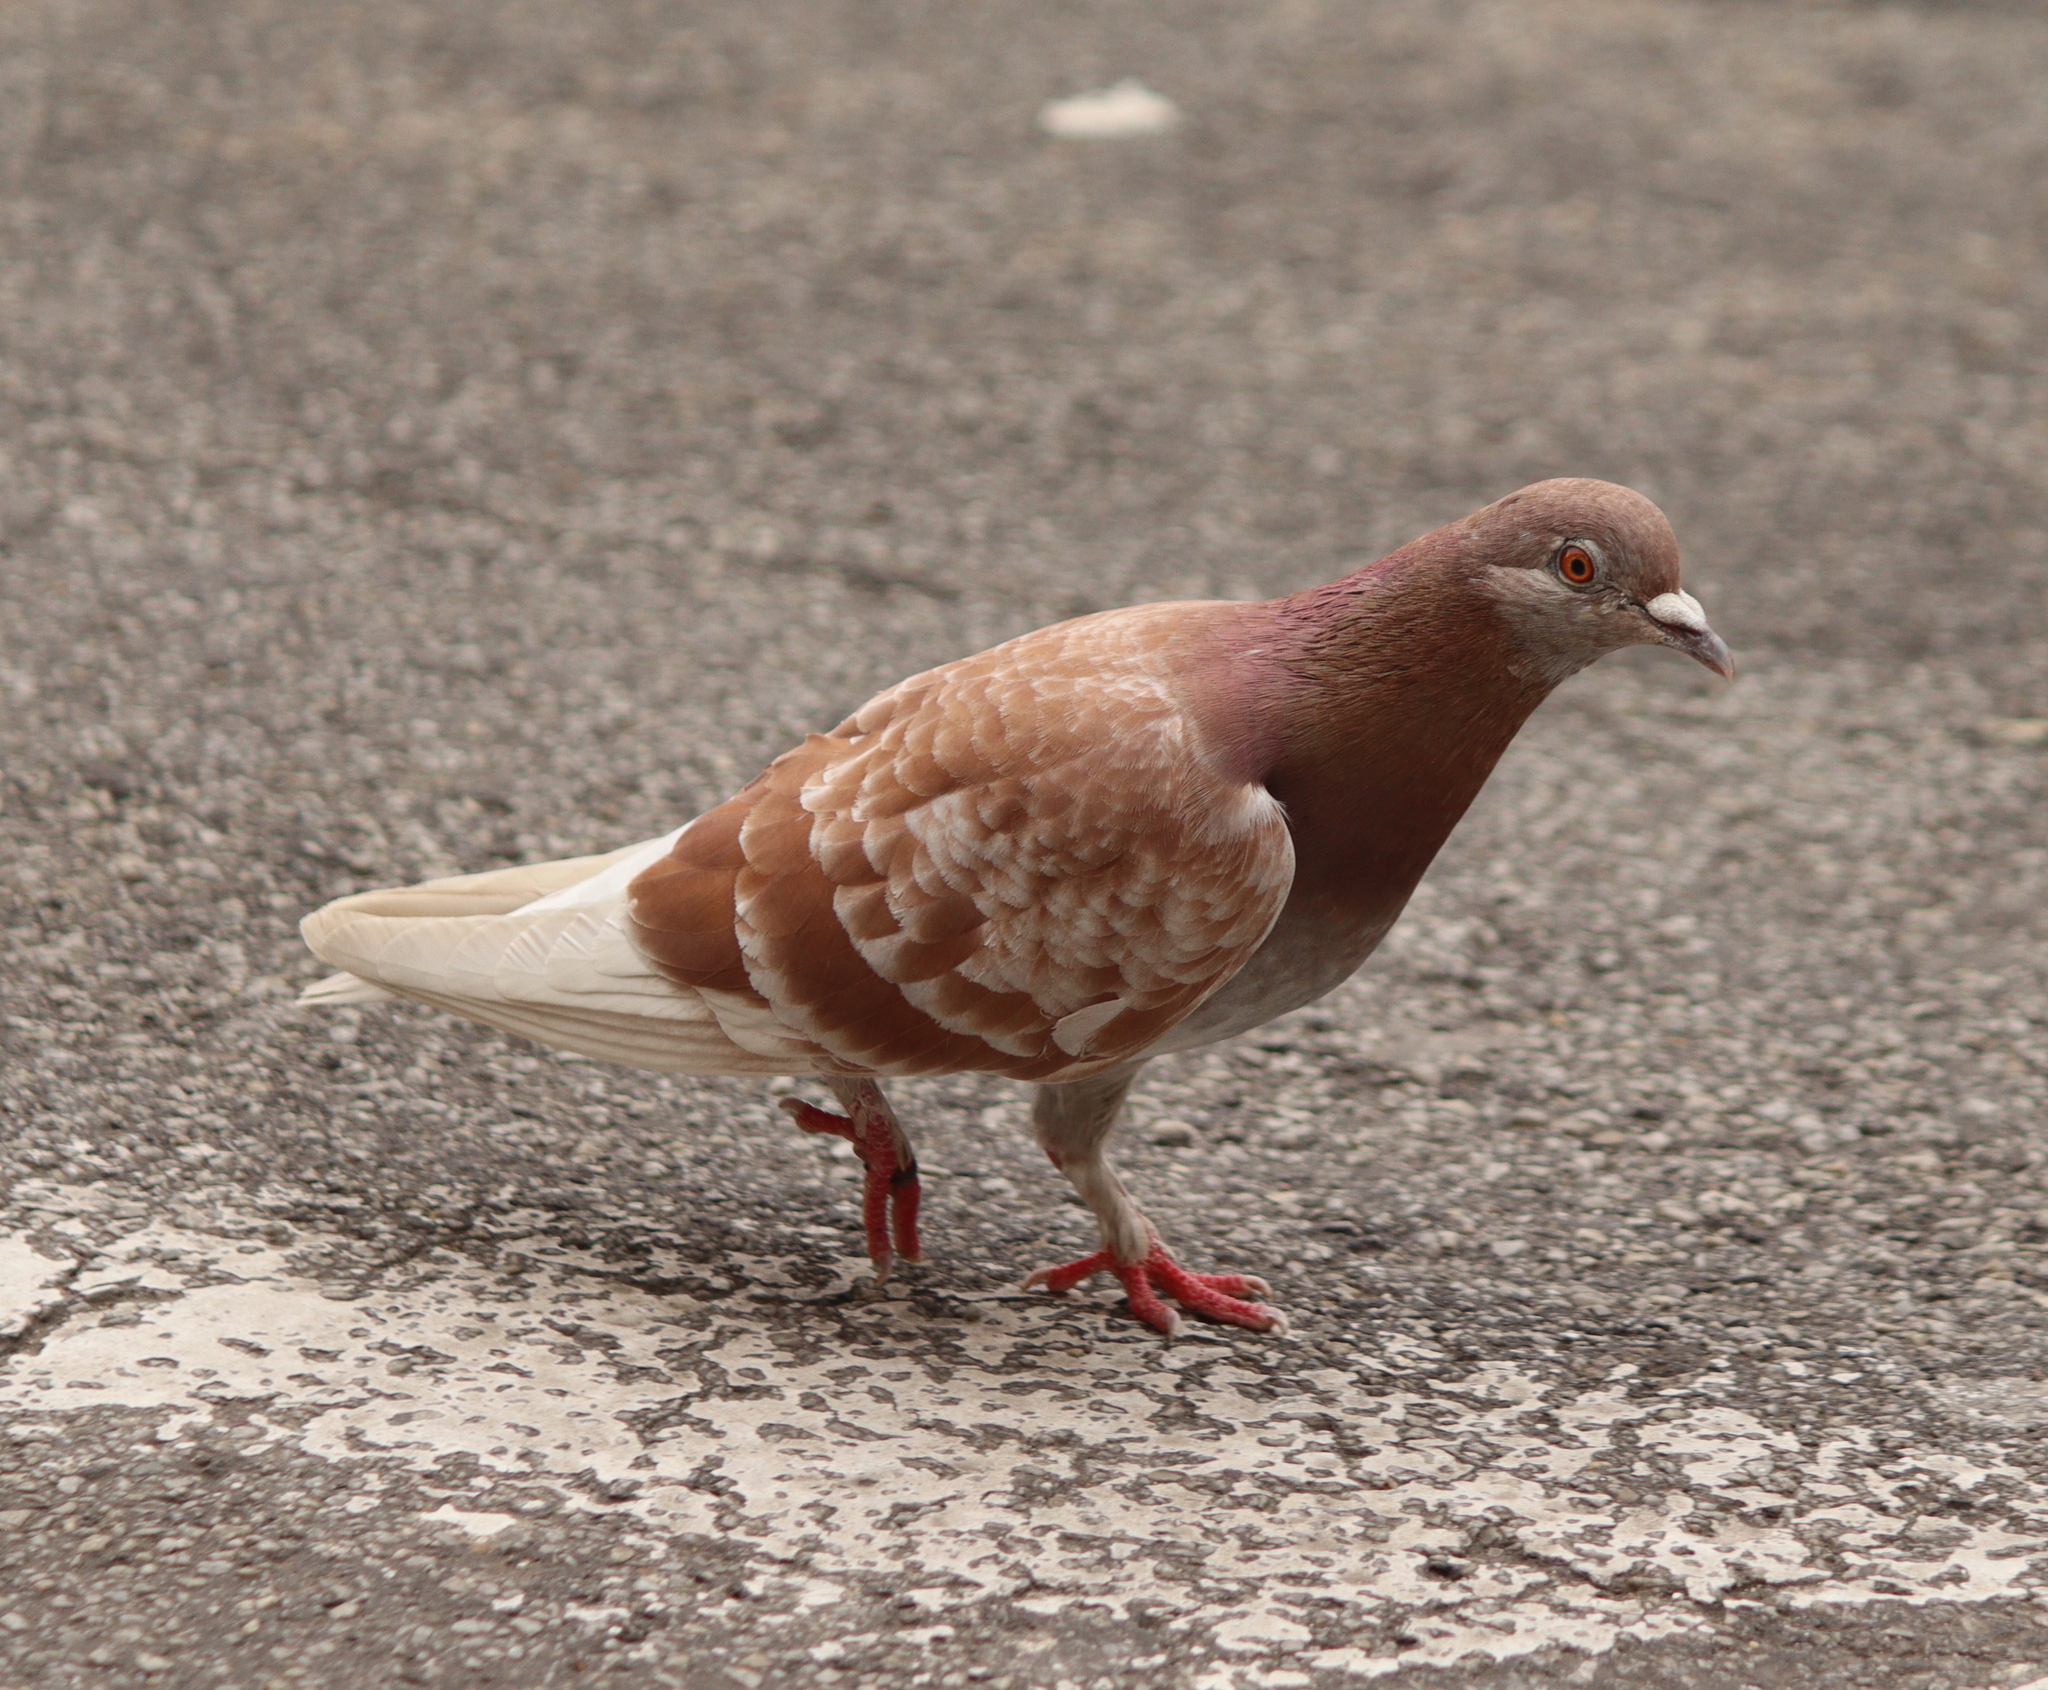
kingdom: Animalia
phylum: Chordata
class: Aves
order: Columbiformes
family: Columbidae
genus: Columba
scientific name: Columba livia
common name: Rock pigeon
